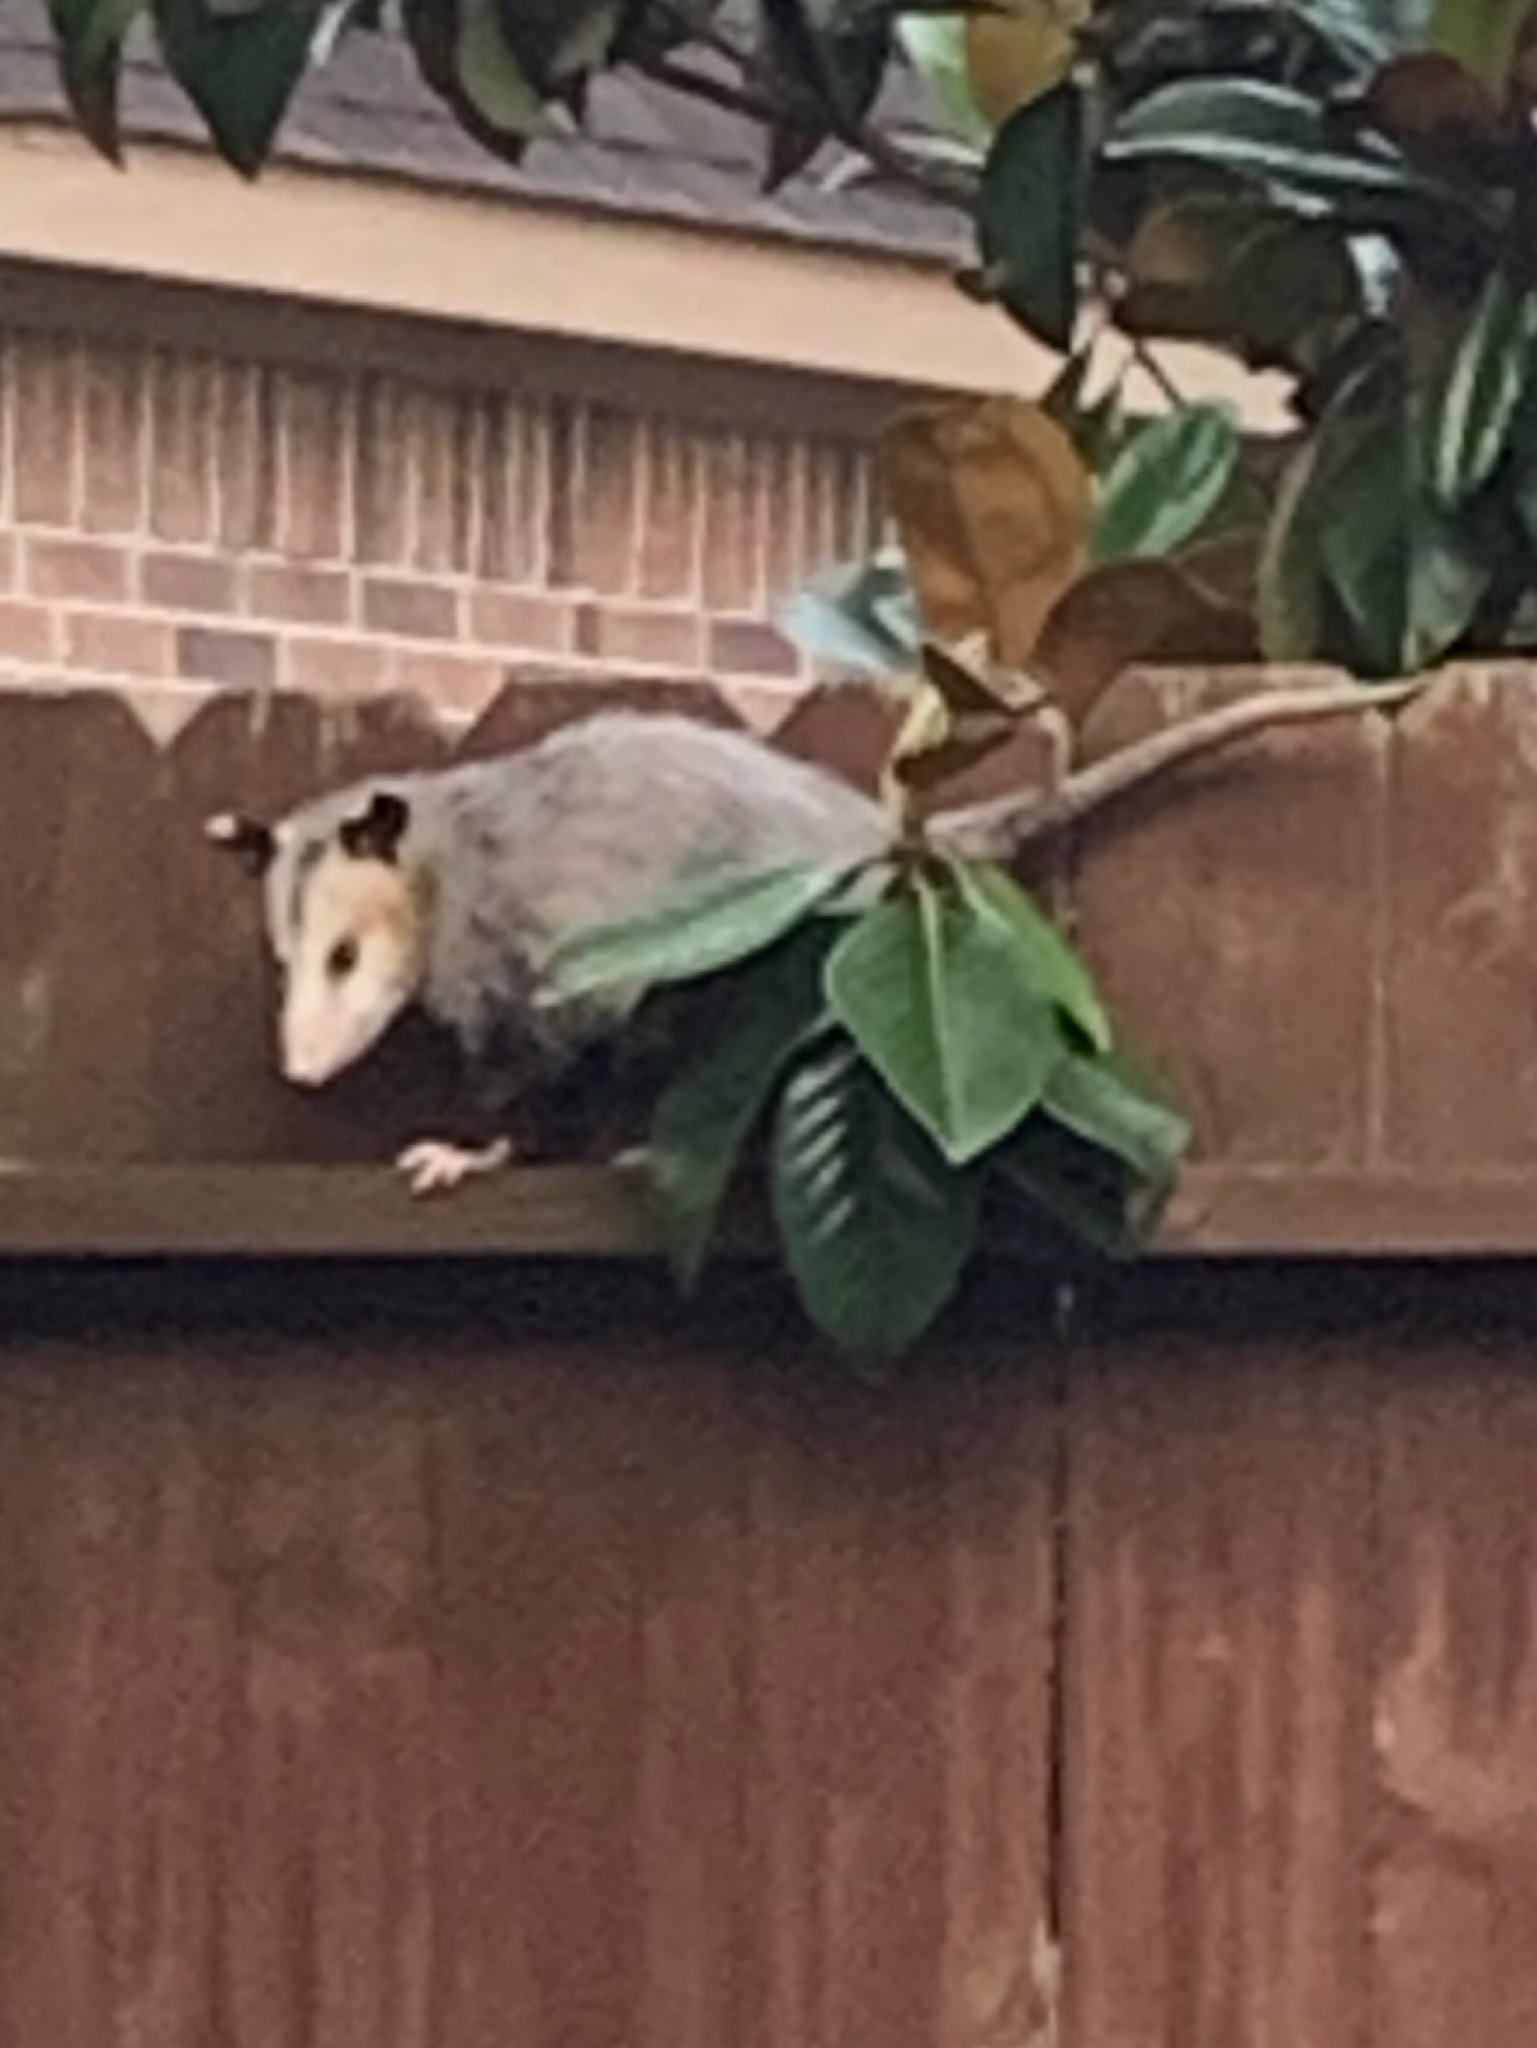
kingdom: Animalia
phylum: Chordata
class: Mammalia
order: Didelphimorphia
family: Didelphidae
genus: Didelphis
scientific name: Didelphis virginiana
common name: Virginia opossum
